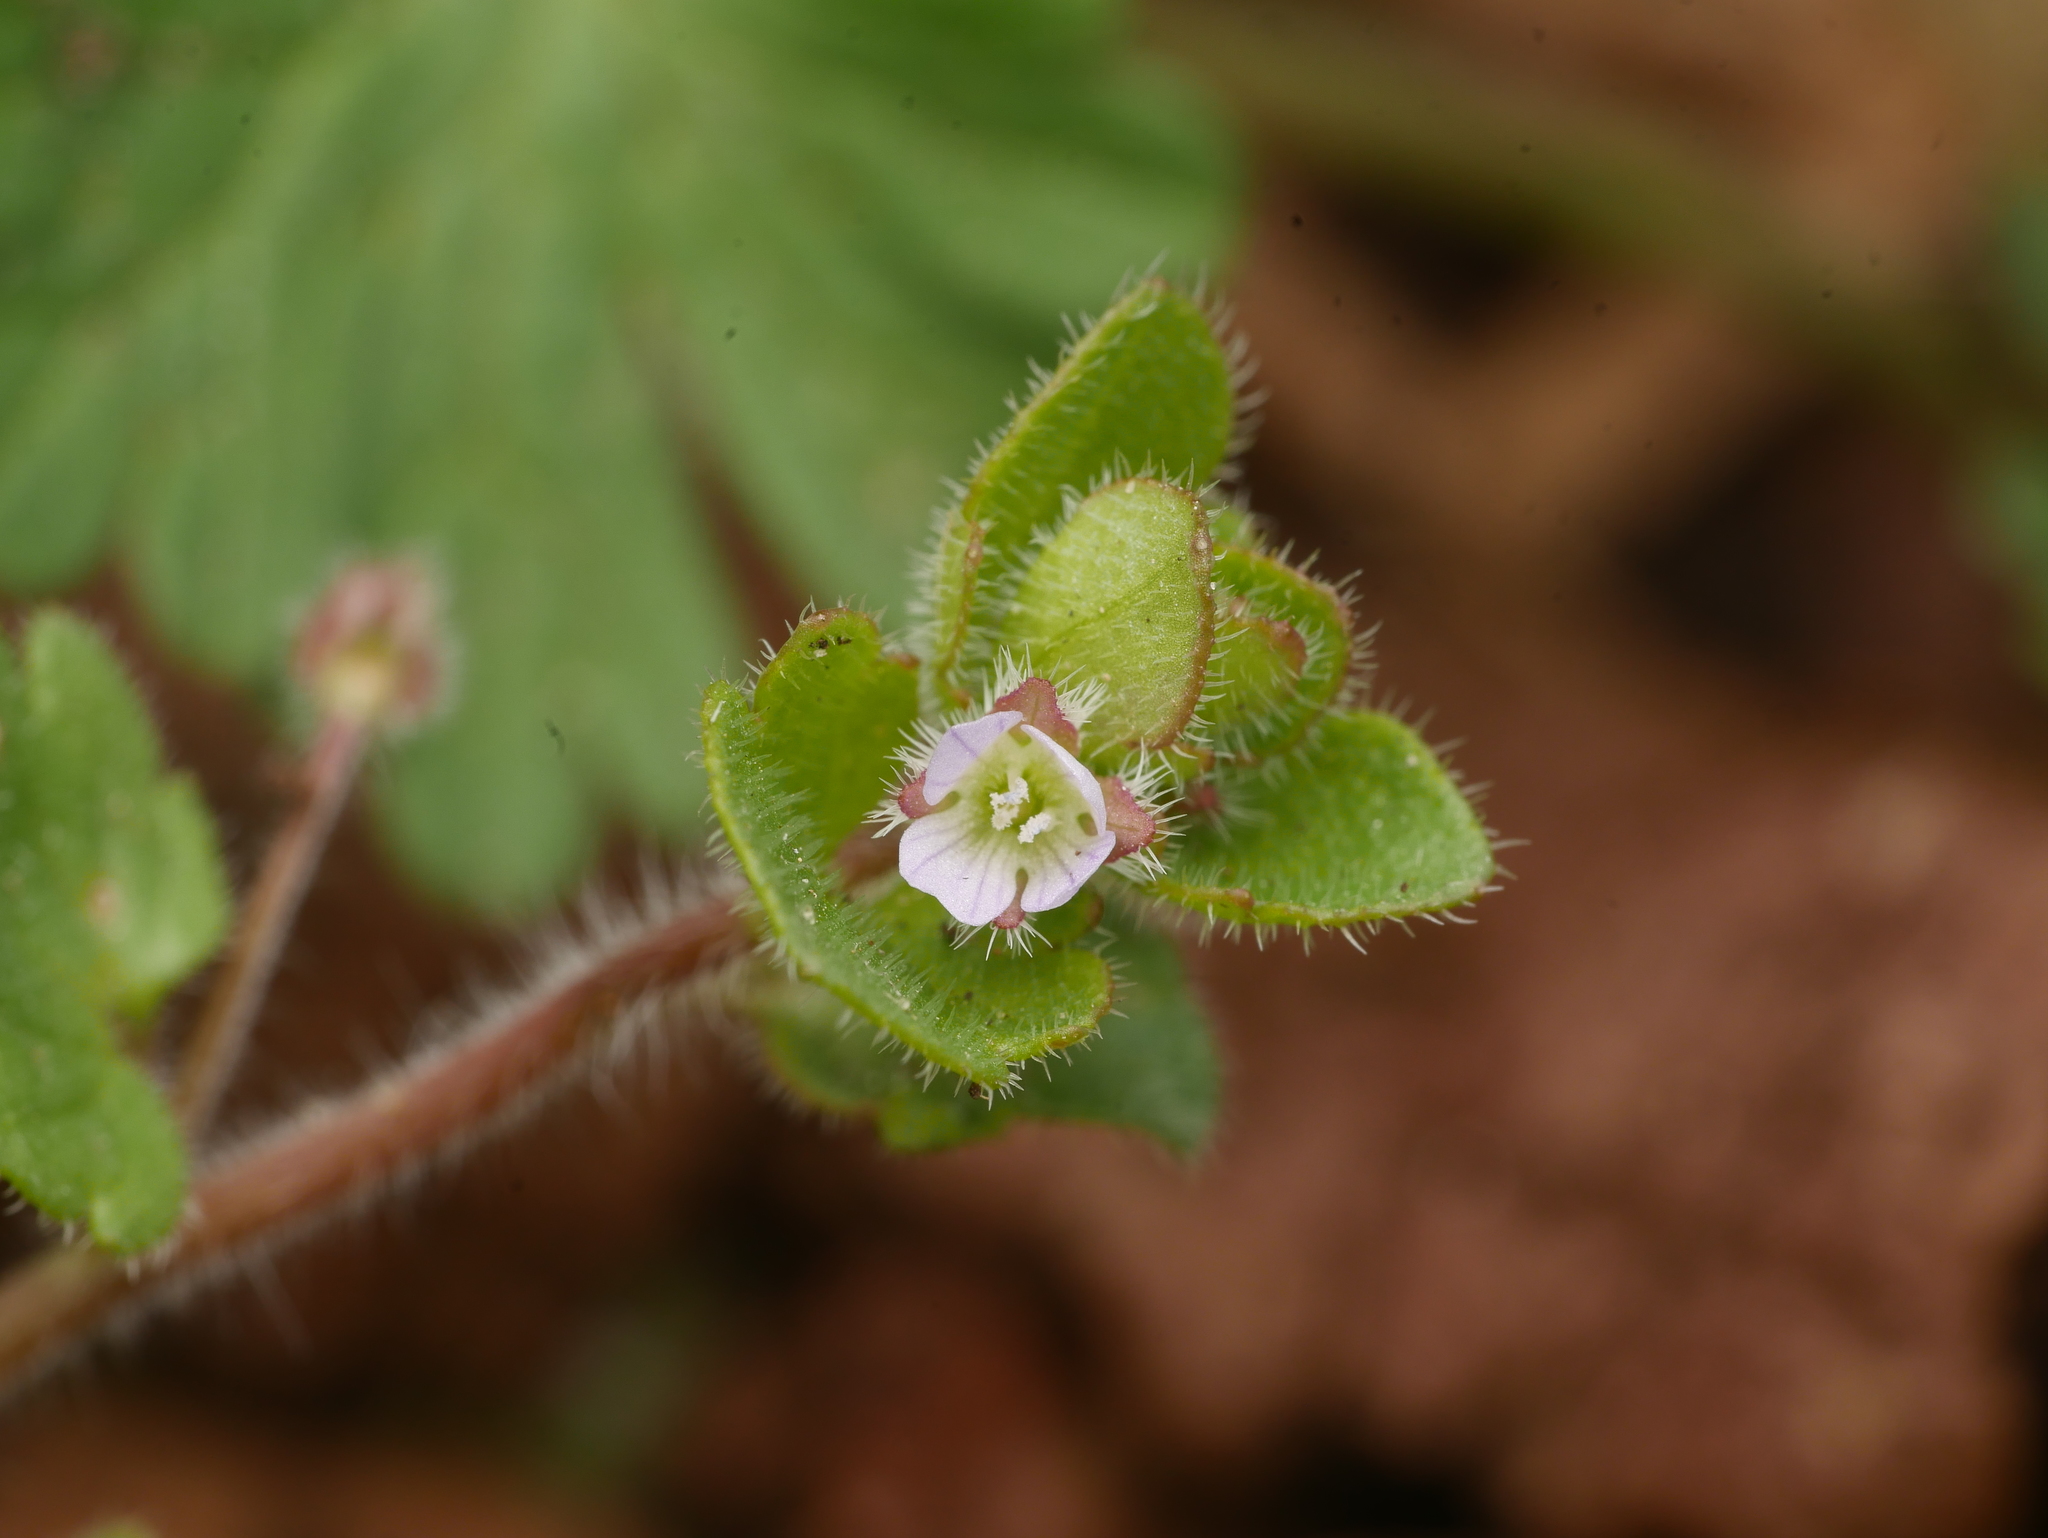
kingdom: Plantae
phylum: Tracheophyta
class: Magnoliopsida
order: Lamiales
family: Plantaginaceae
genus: Veronica
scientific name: Veronica sublobata
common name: False ivy-leaved speedwell
